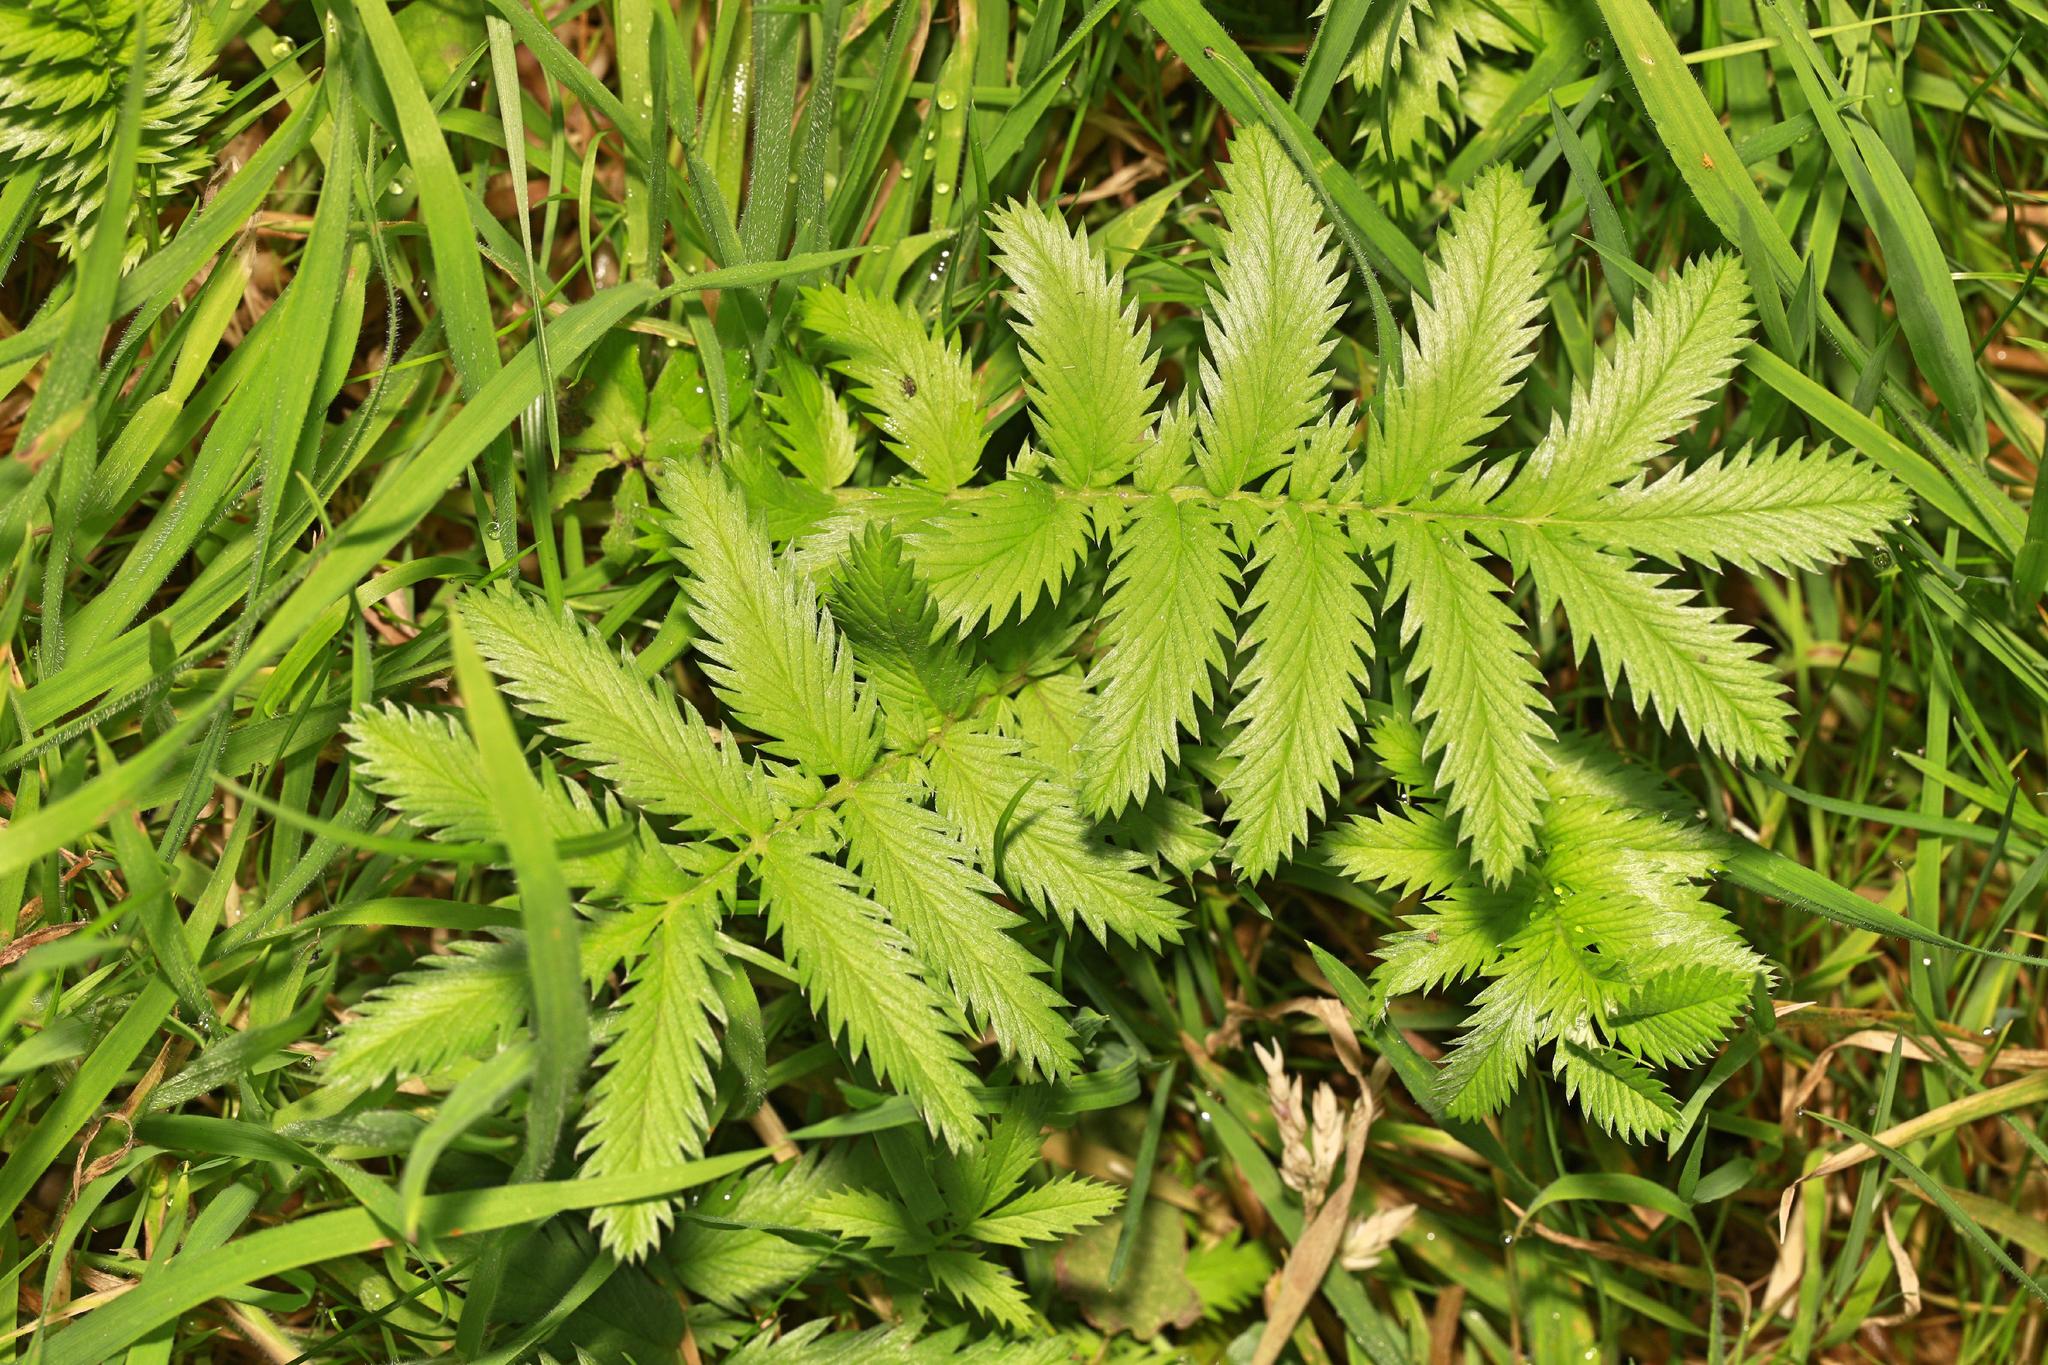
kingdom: Plantae
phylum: Tracheophyta
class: Magnoliopsida
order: Rosales
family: Rosaceae
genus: Argentina
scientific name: Argentina anserina
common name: Common silverweed
